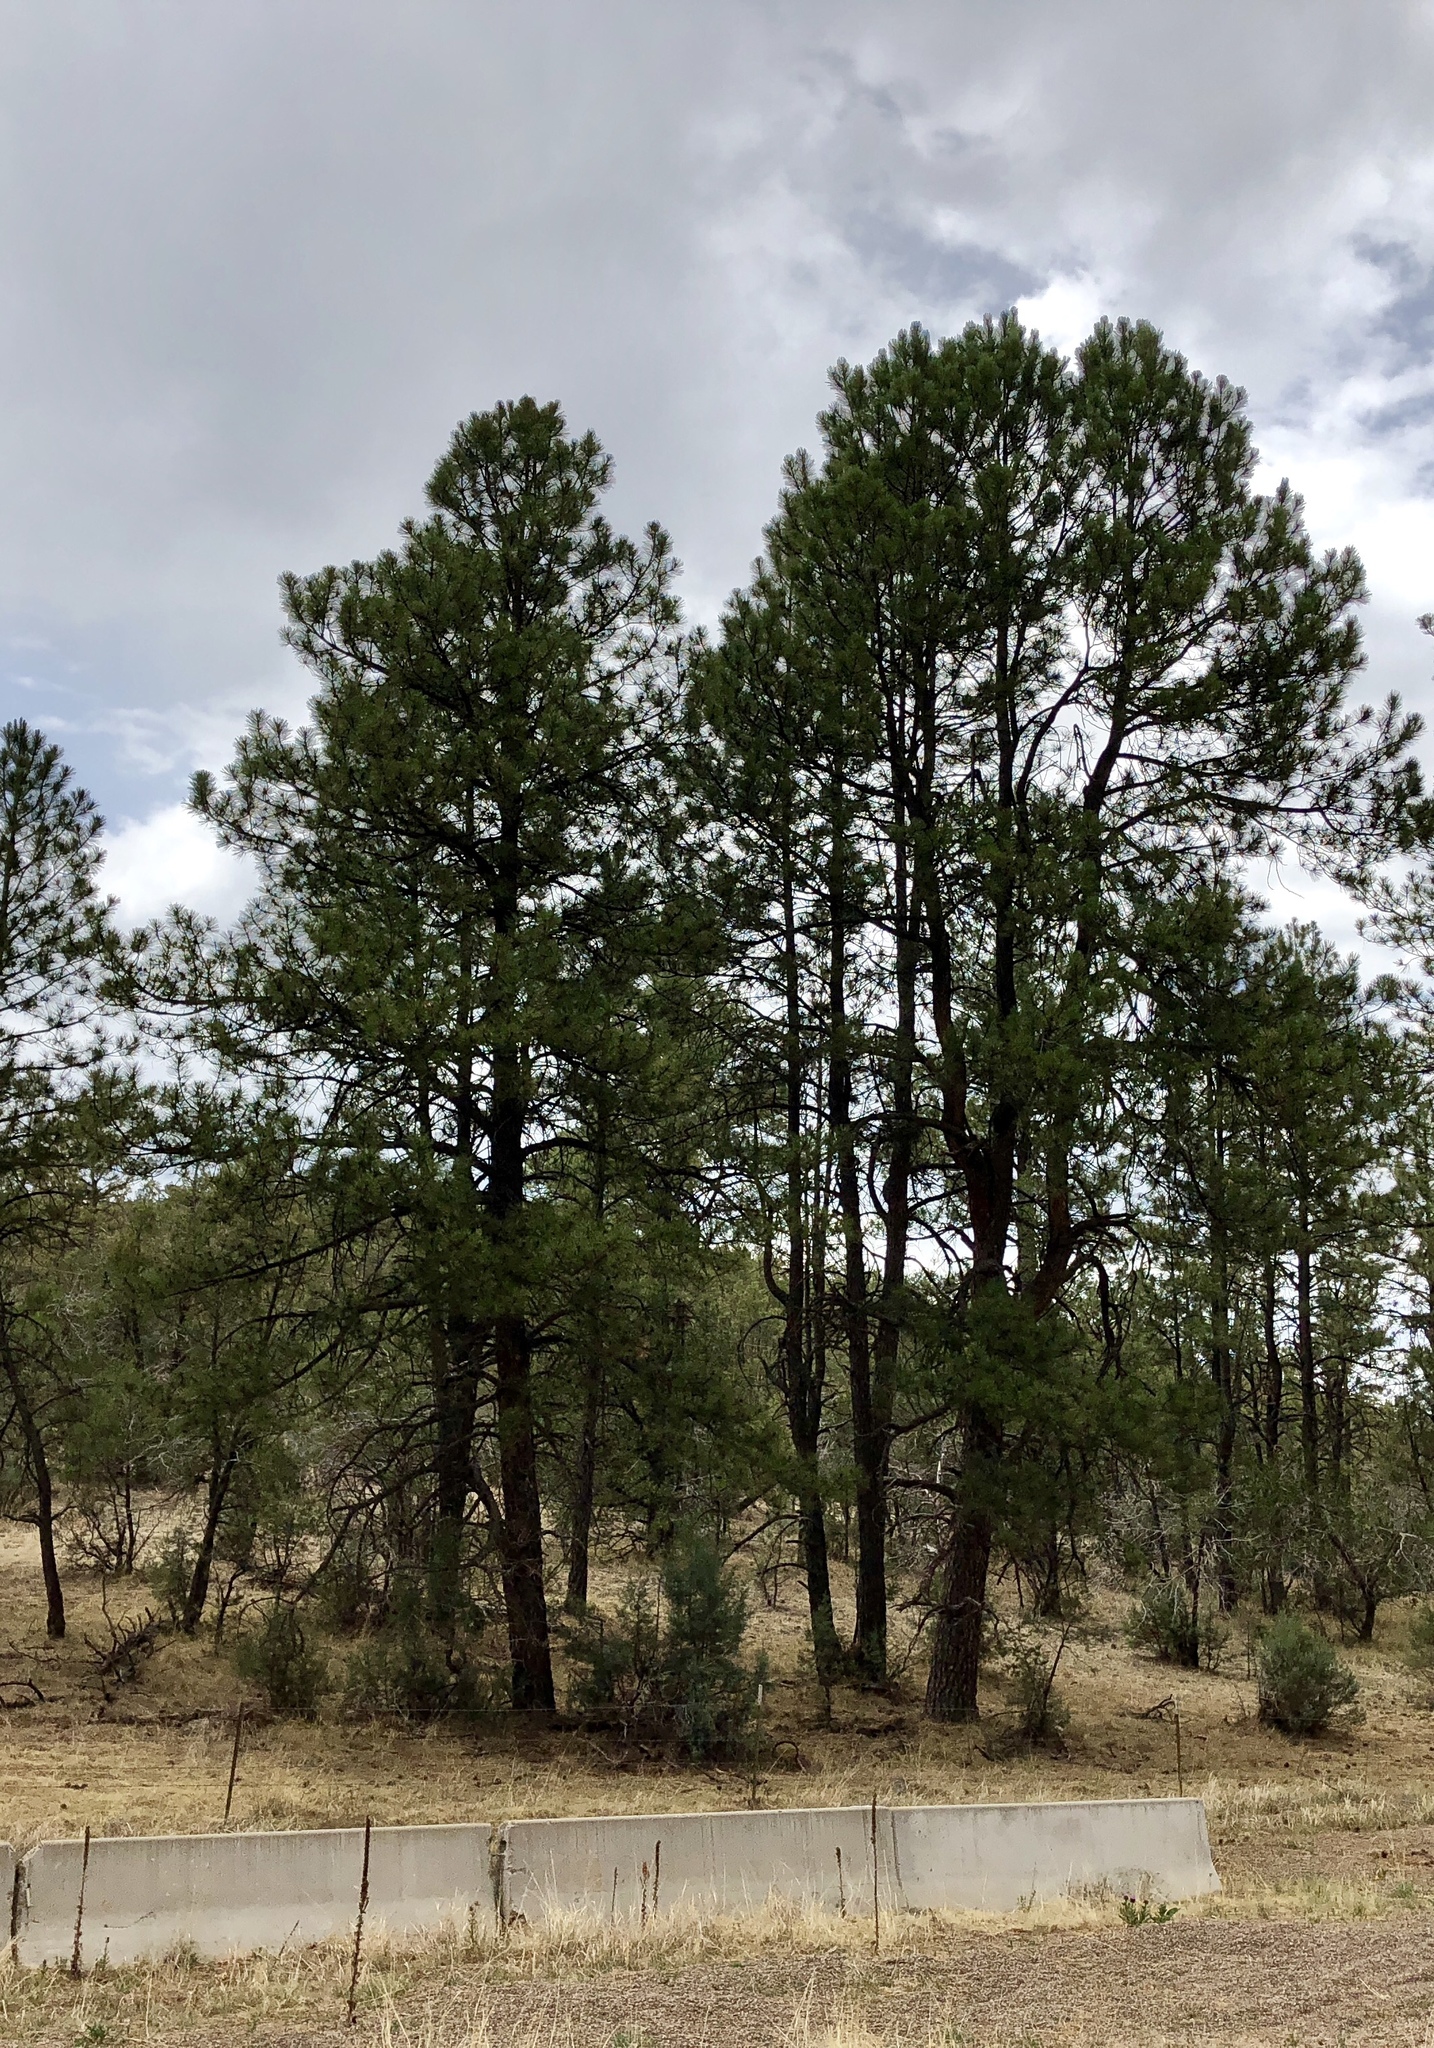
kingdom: Plantae
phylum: Tracheophyta
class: Pinopsida
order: Pinales
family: Pinaceae
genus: Pinus
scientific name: Pinus ponderosa
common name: Western yellow-pine
